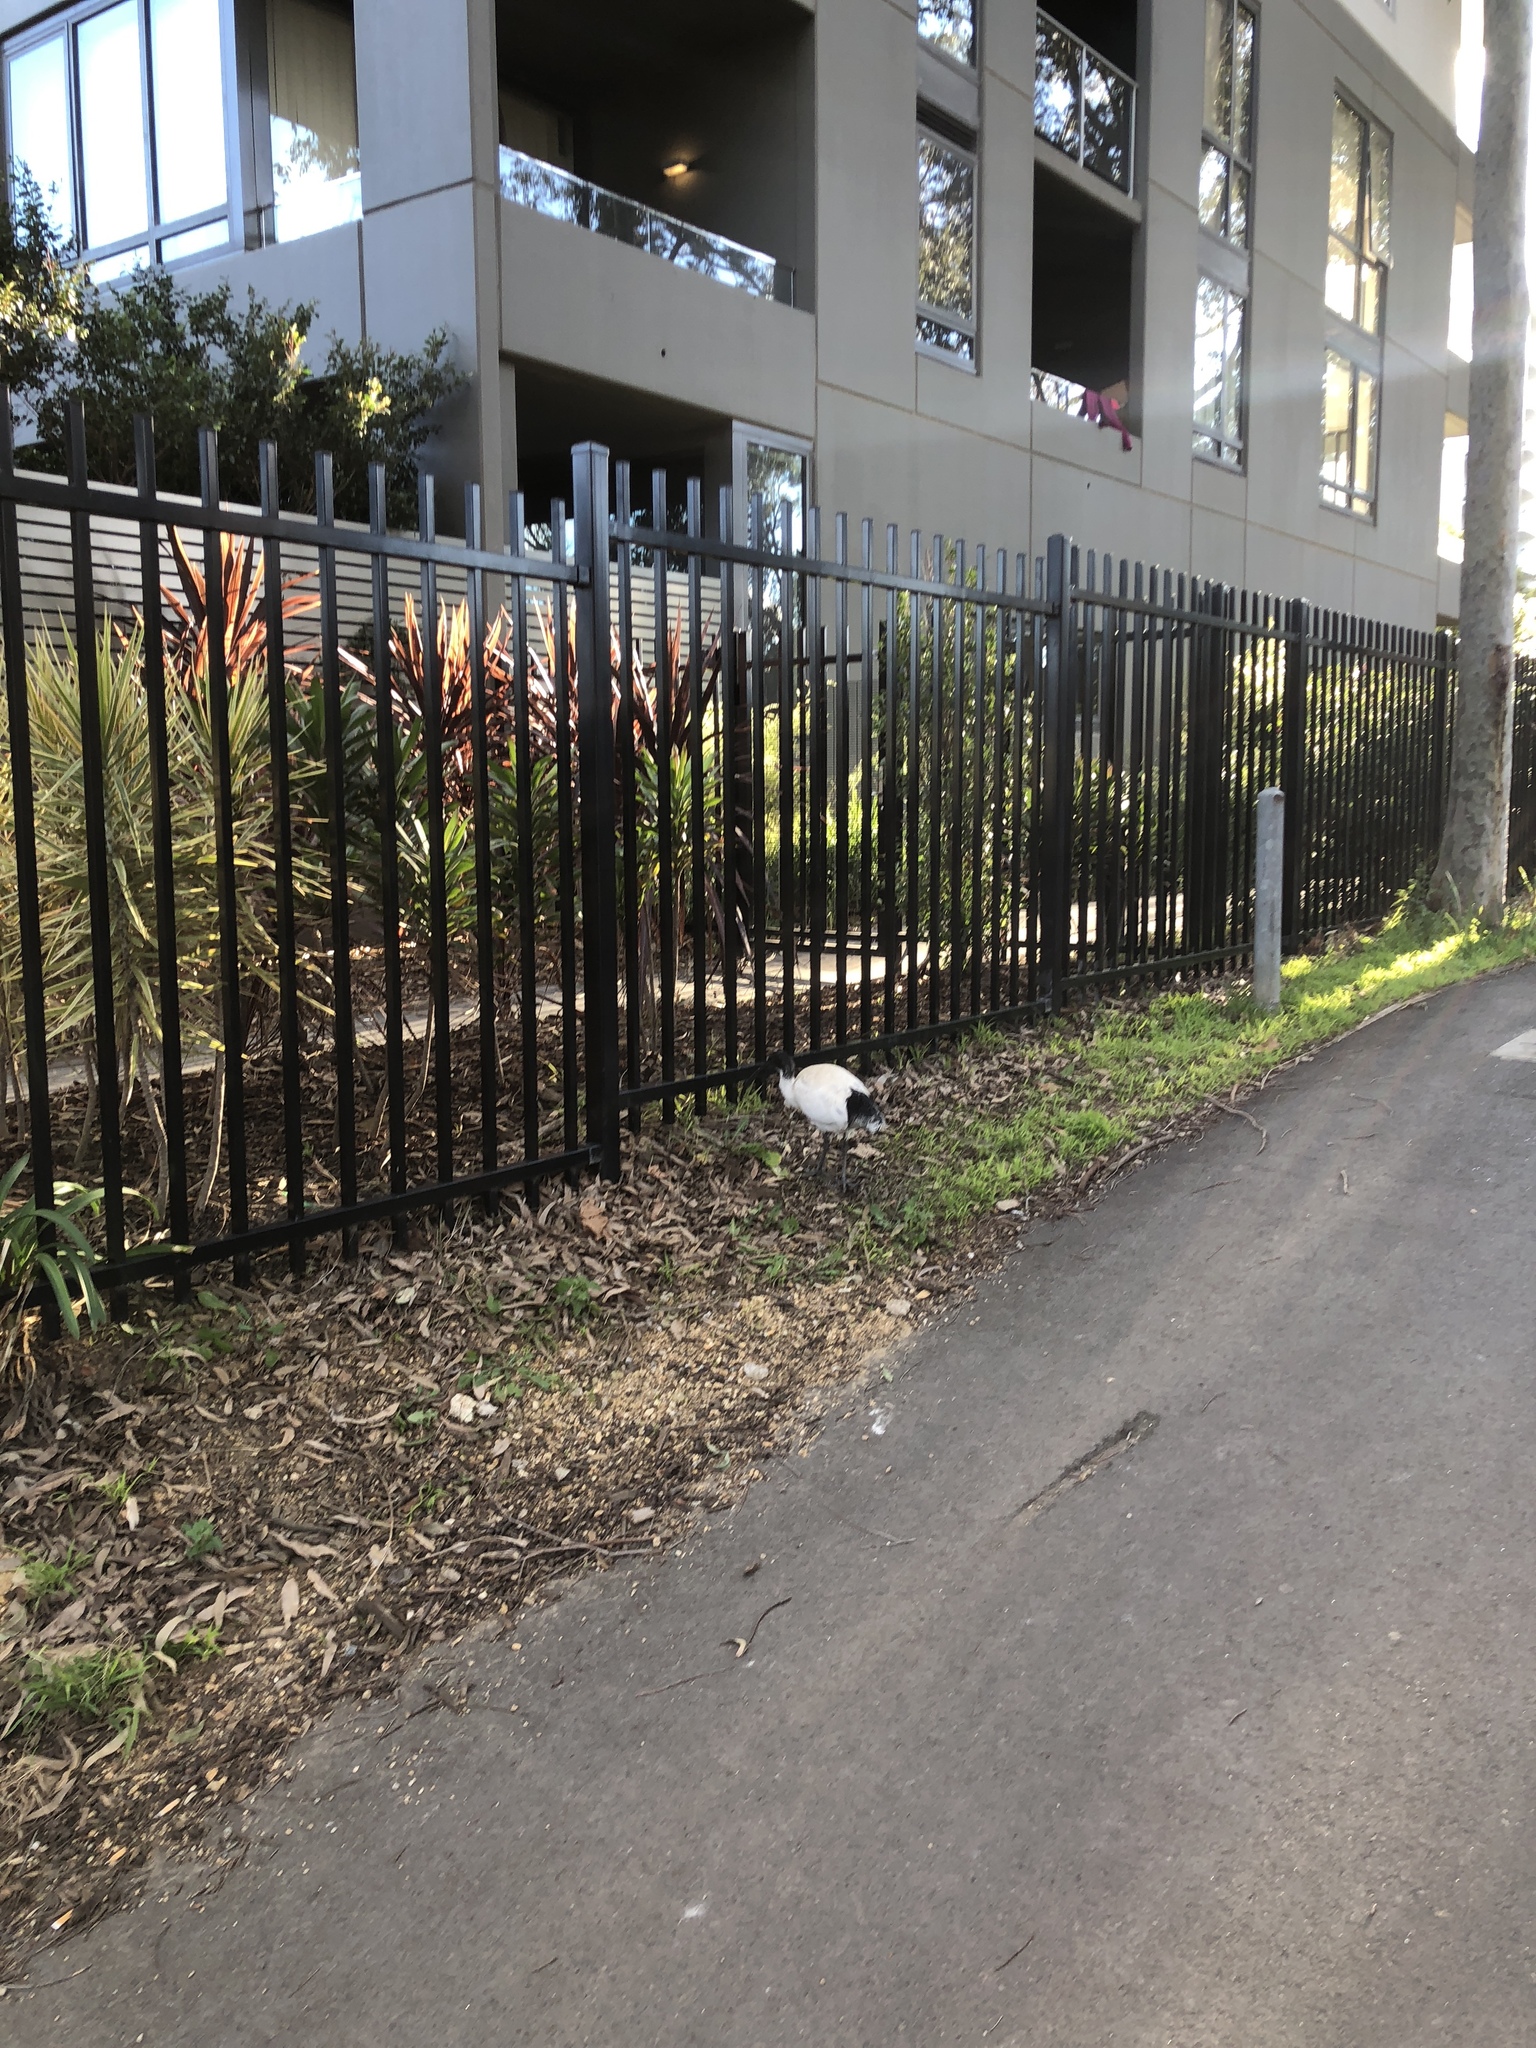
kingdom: Animalia
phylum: Chordata
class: Aves
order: Pelecaniformes
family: Threskiornithidae
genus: Threskiornis
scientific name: Threskiornis molucca
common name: Australian white ibis
